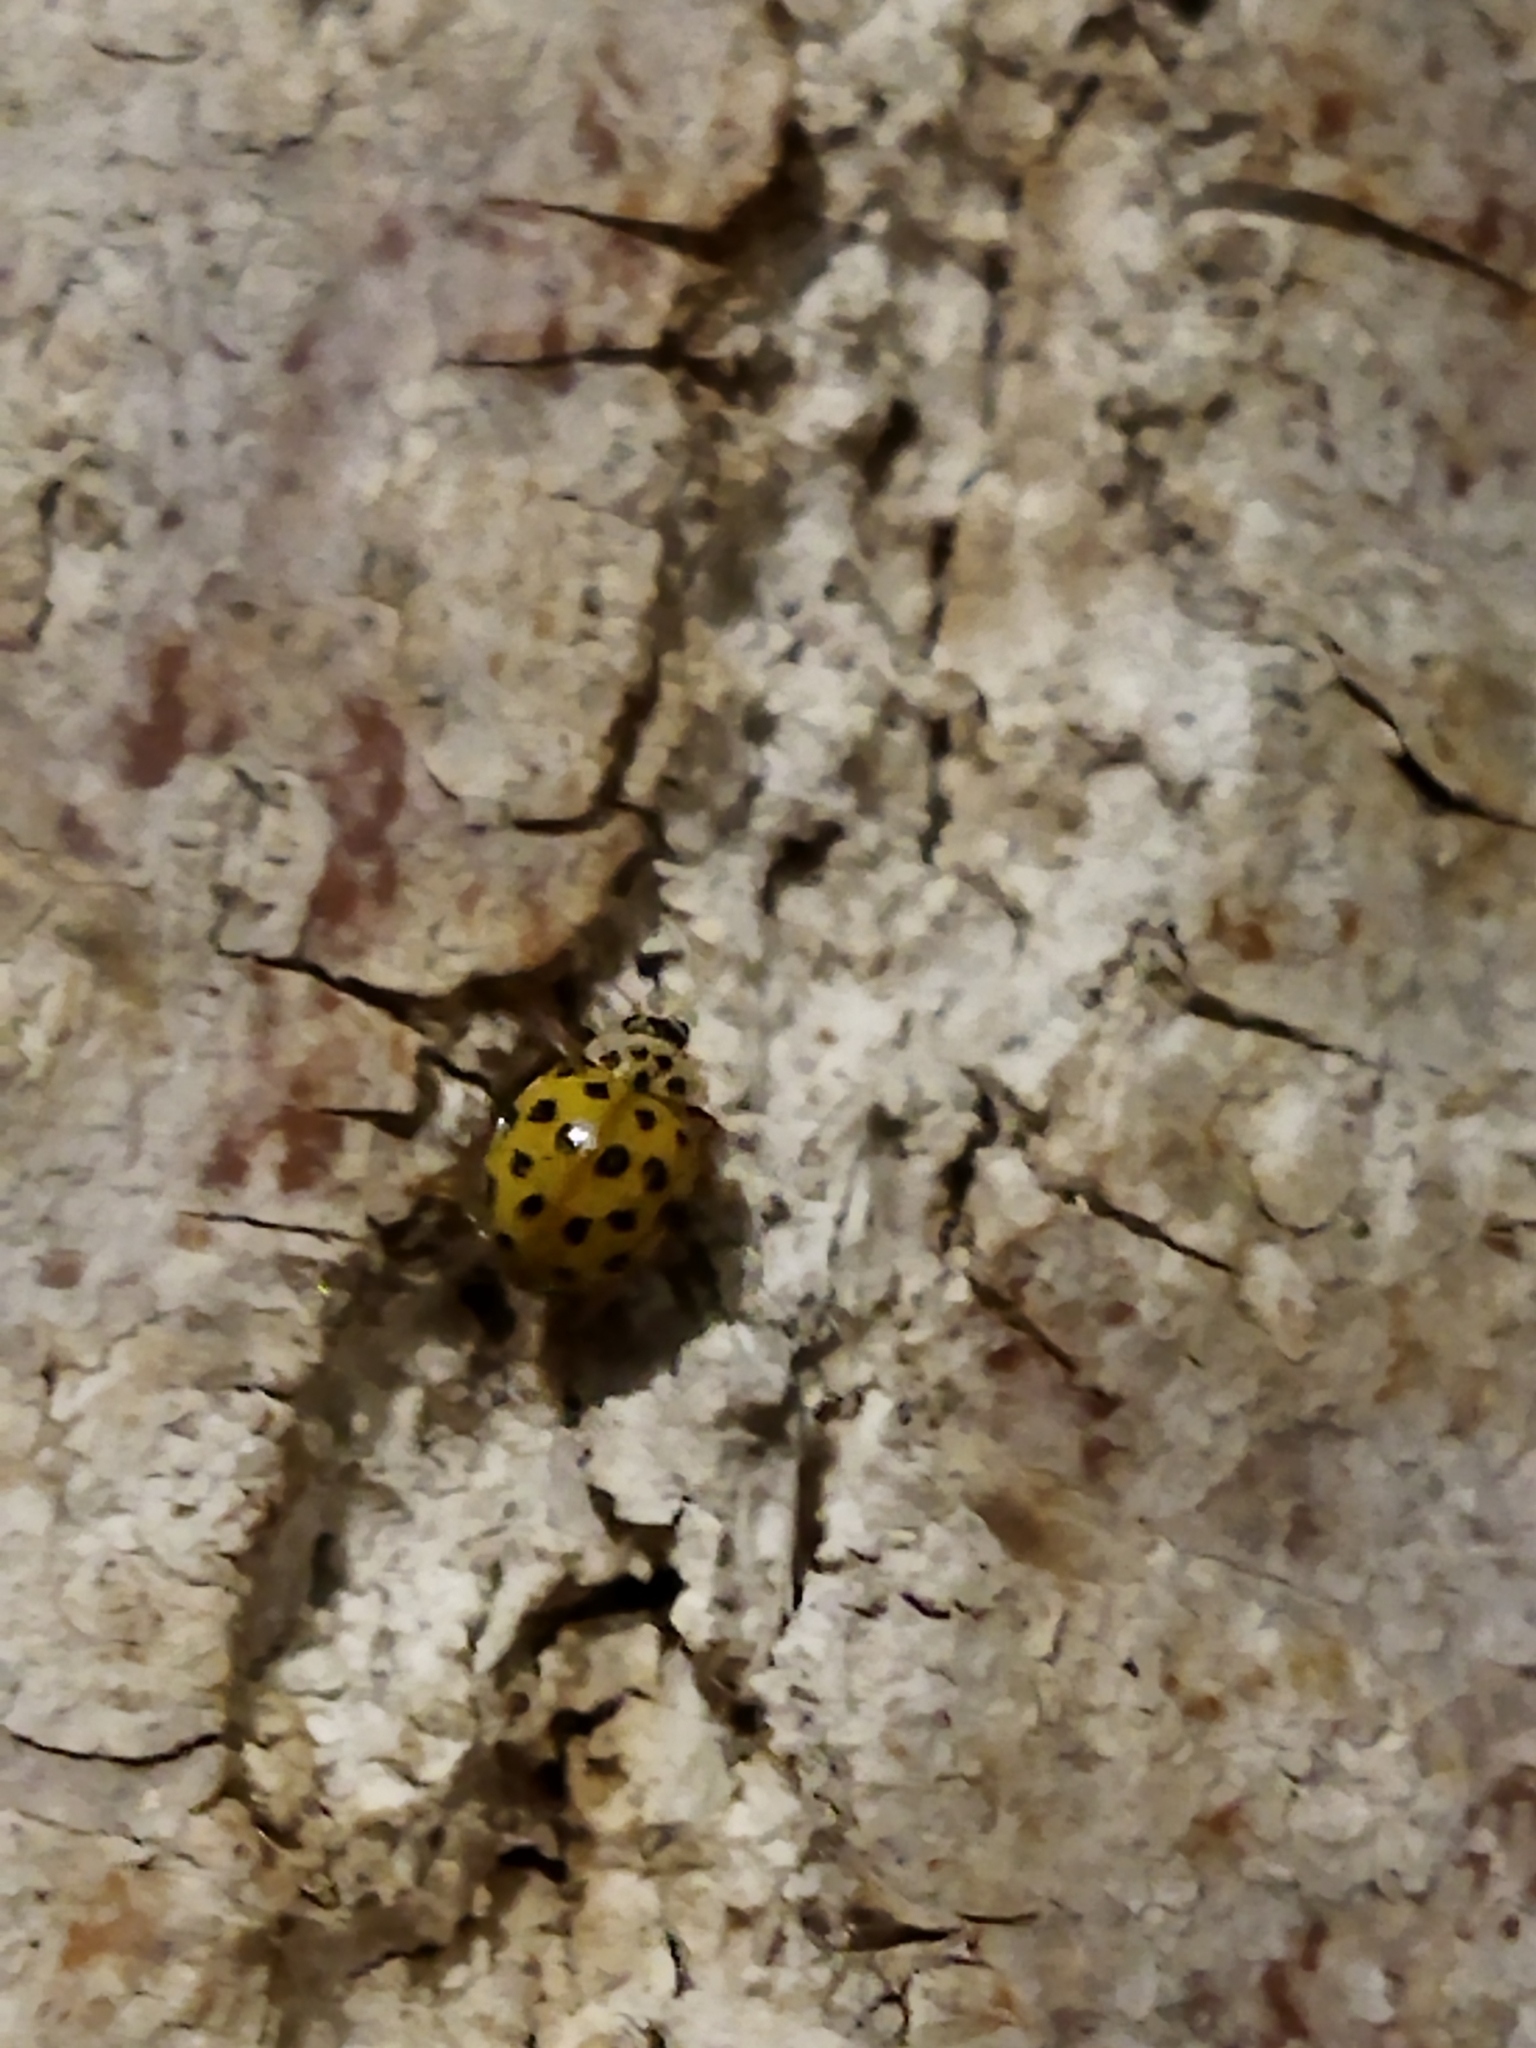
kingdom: Animalia
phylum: Arthropoda
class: Insecta
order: Coleoptera
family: Coccinellidae
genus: Psyllobora
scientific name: Psyllobora vigintiduopunctata
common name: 22-spot ladybird
